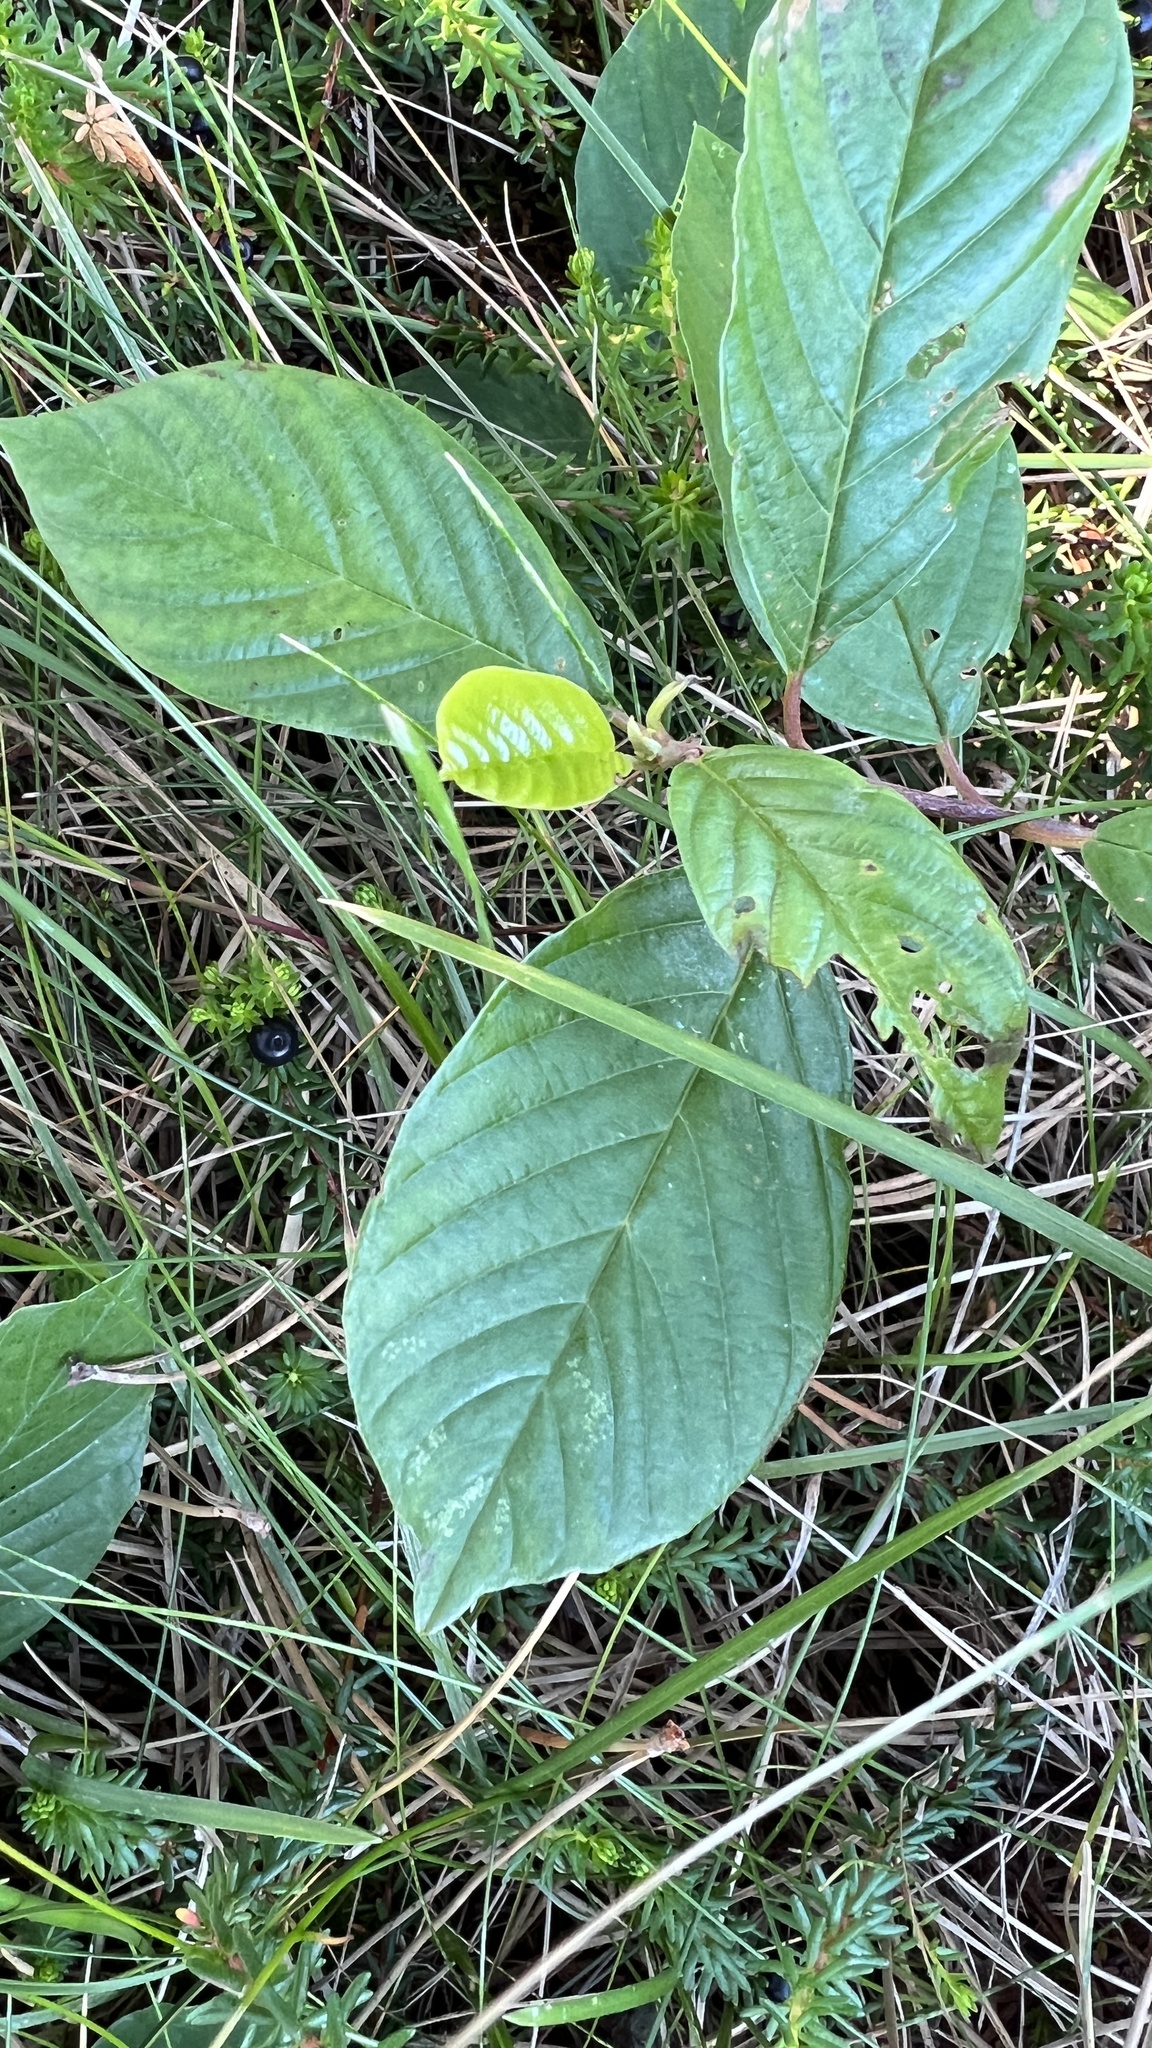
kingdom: Plantae
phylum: Tracheophyta
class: Magnoliopsida
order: Rosales
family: Rhamnaceae
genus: Frangula
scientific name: Frangula alnus
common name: Alder buckthorn
